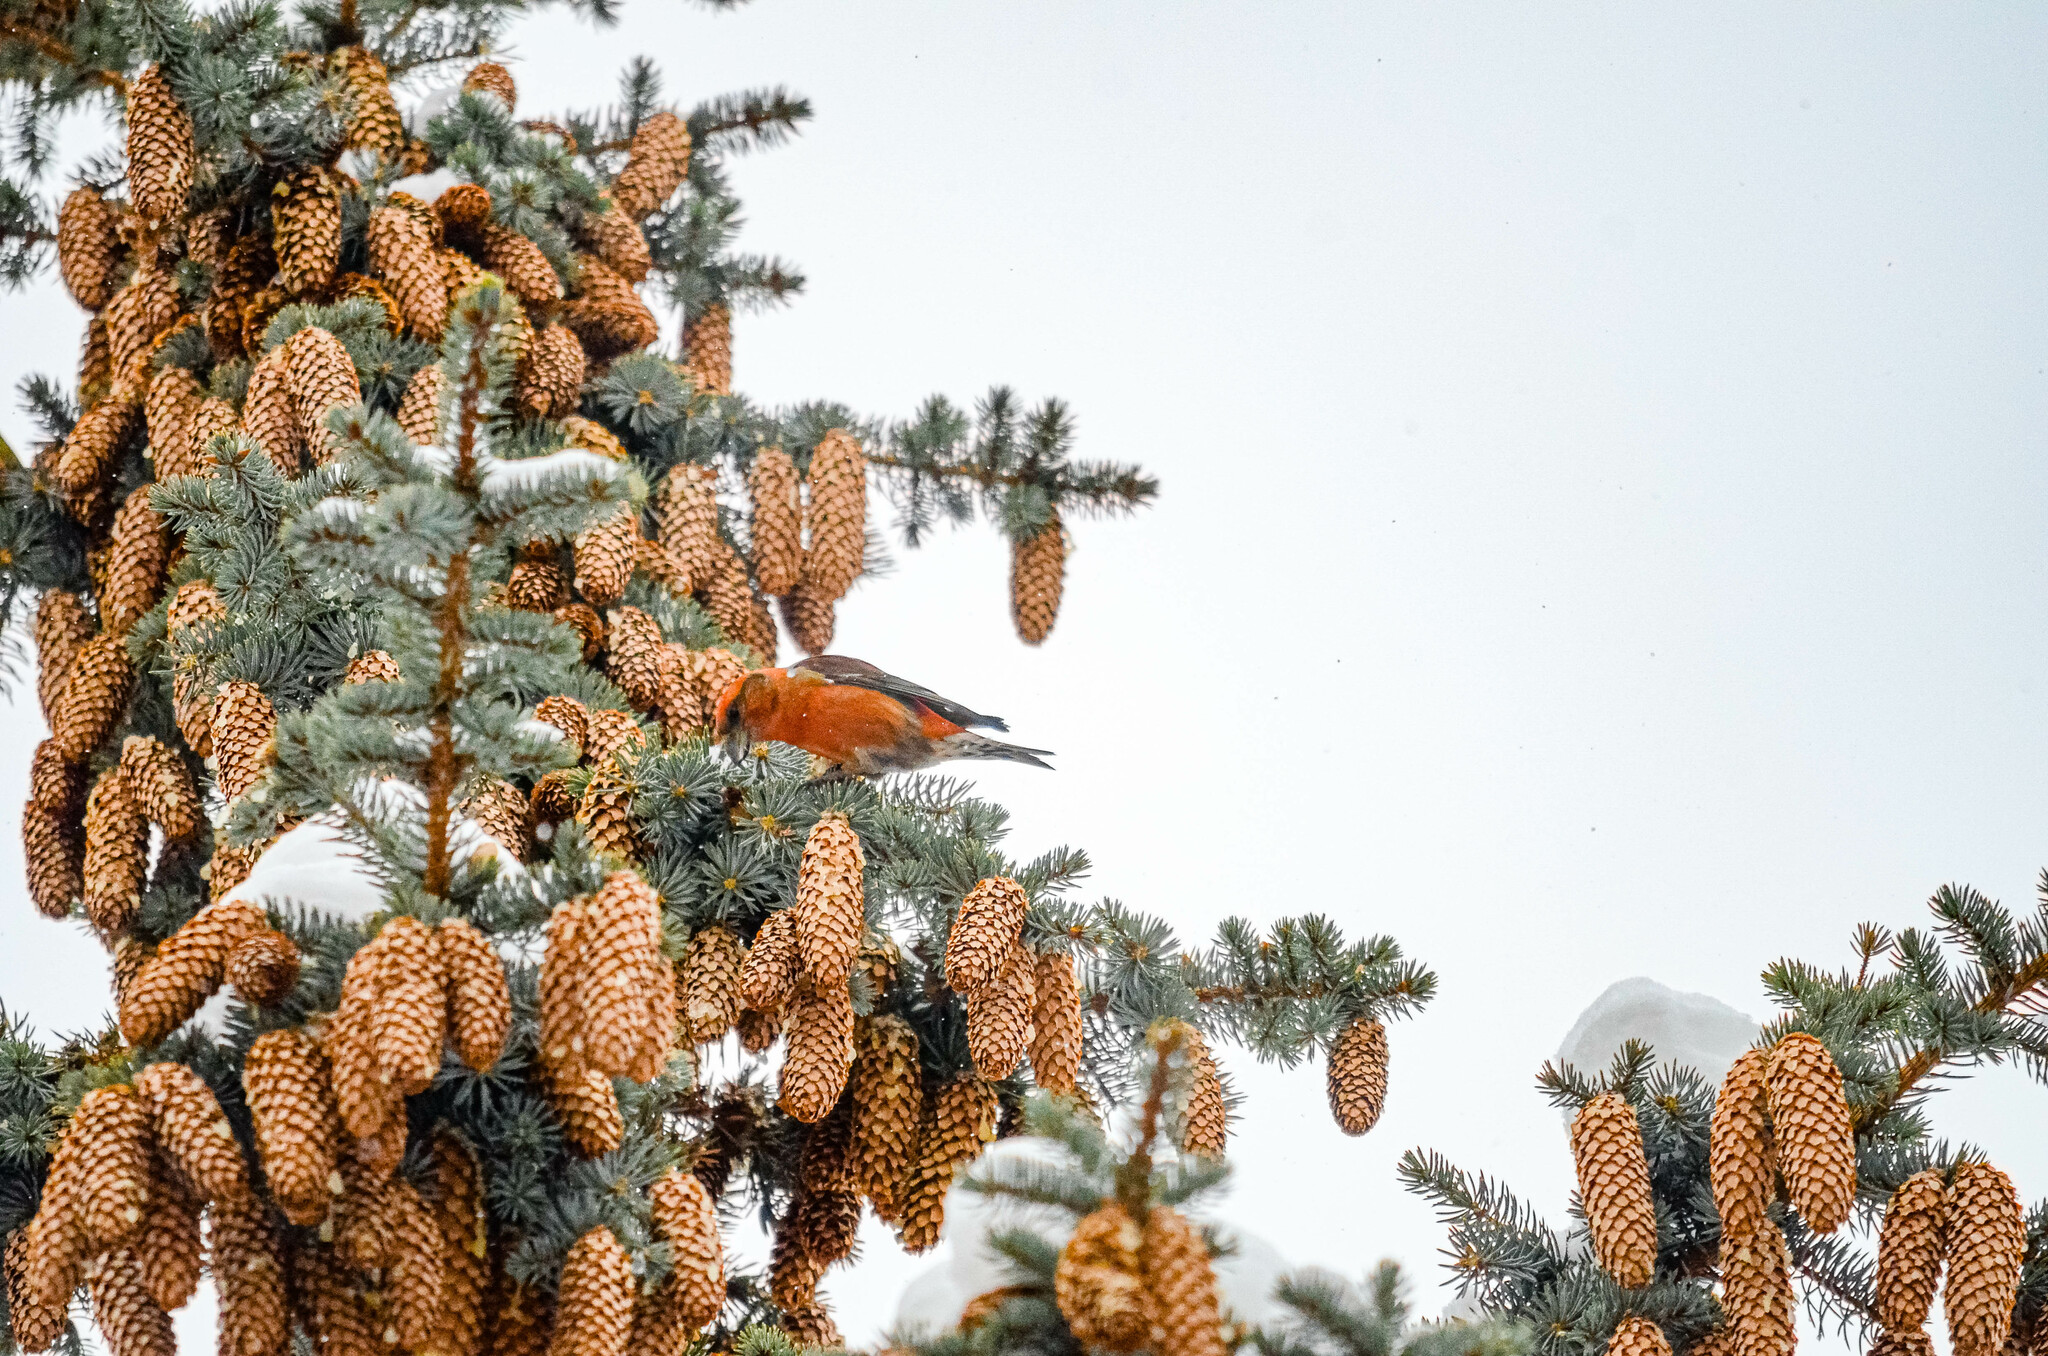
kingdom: Animalia
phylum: Chordata
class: Aves
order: Passeriformes
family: Fringillidae
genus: Loxia
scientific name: Loxia curvirostra
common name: Red crossbill
